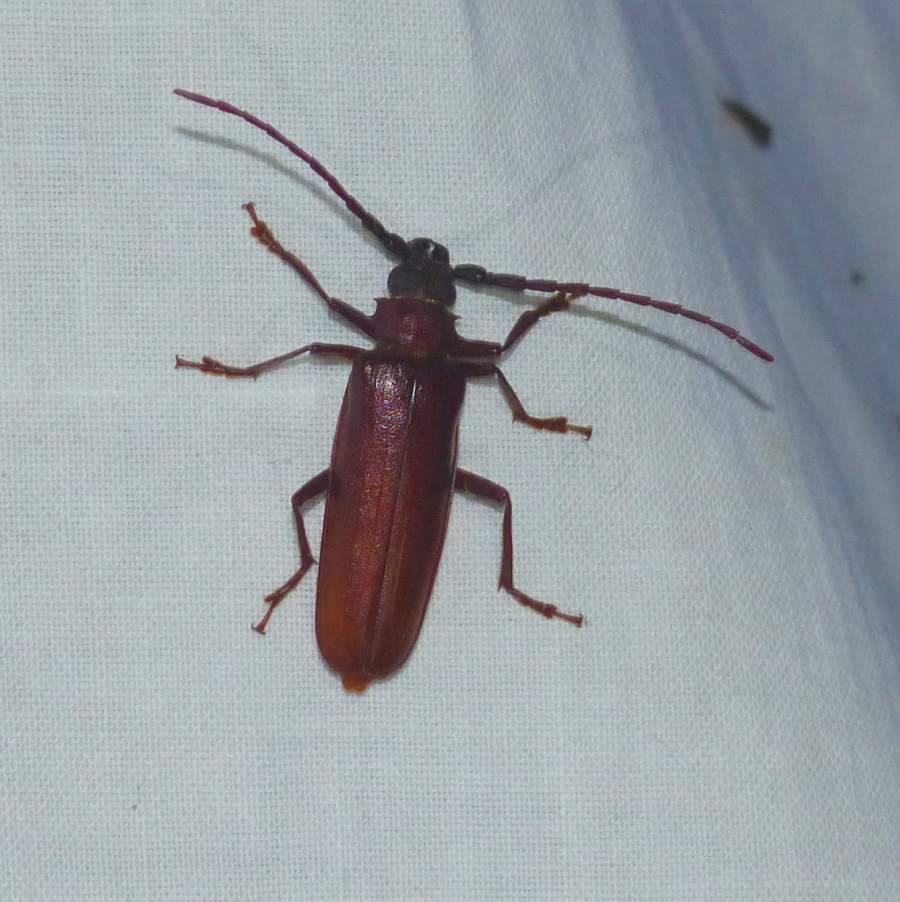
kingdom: Animalia
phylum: Arthropoda
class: Insecta
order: Coleoptera
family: Cerambycidae
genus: Orthosoma
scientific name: Orthosoma brunneum
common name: Brown prionid beetle
